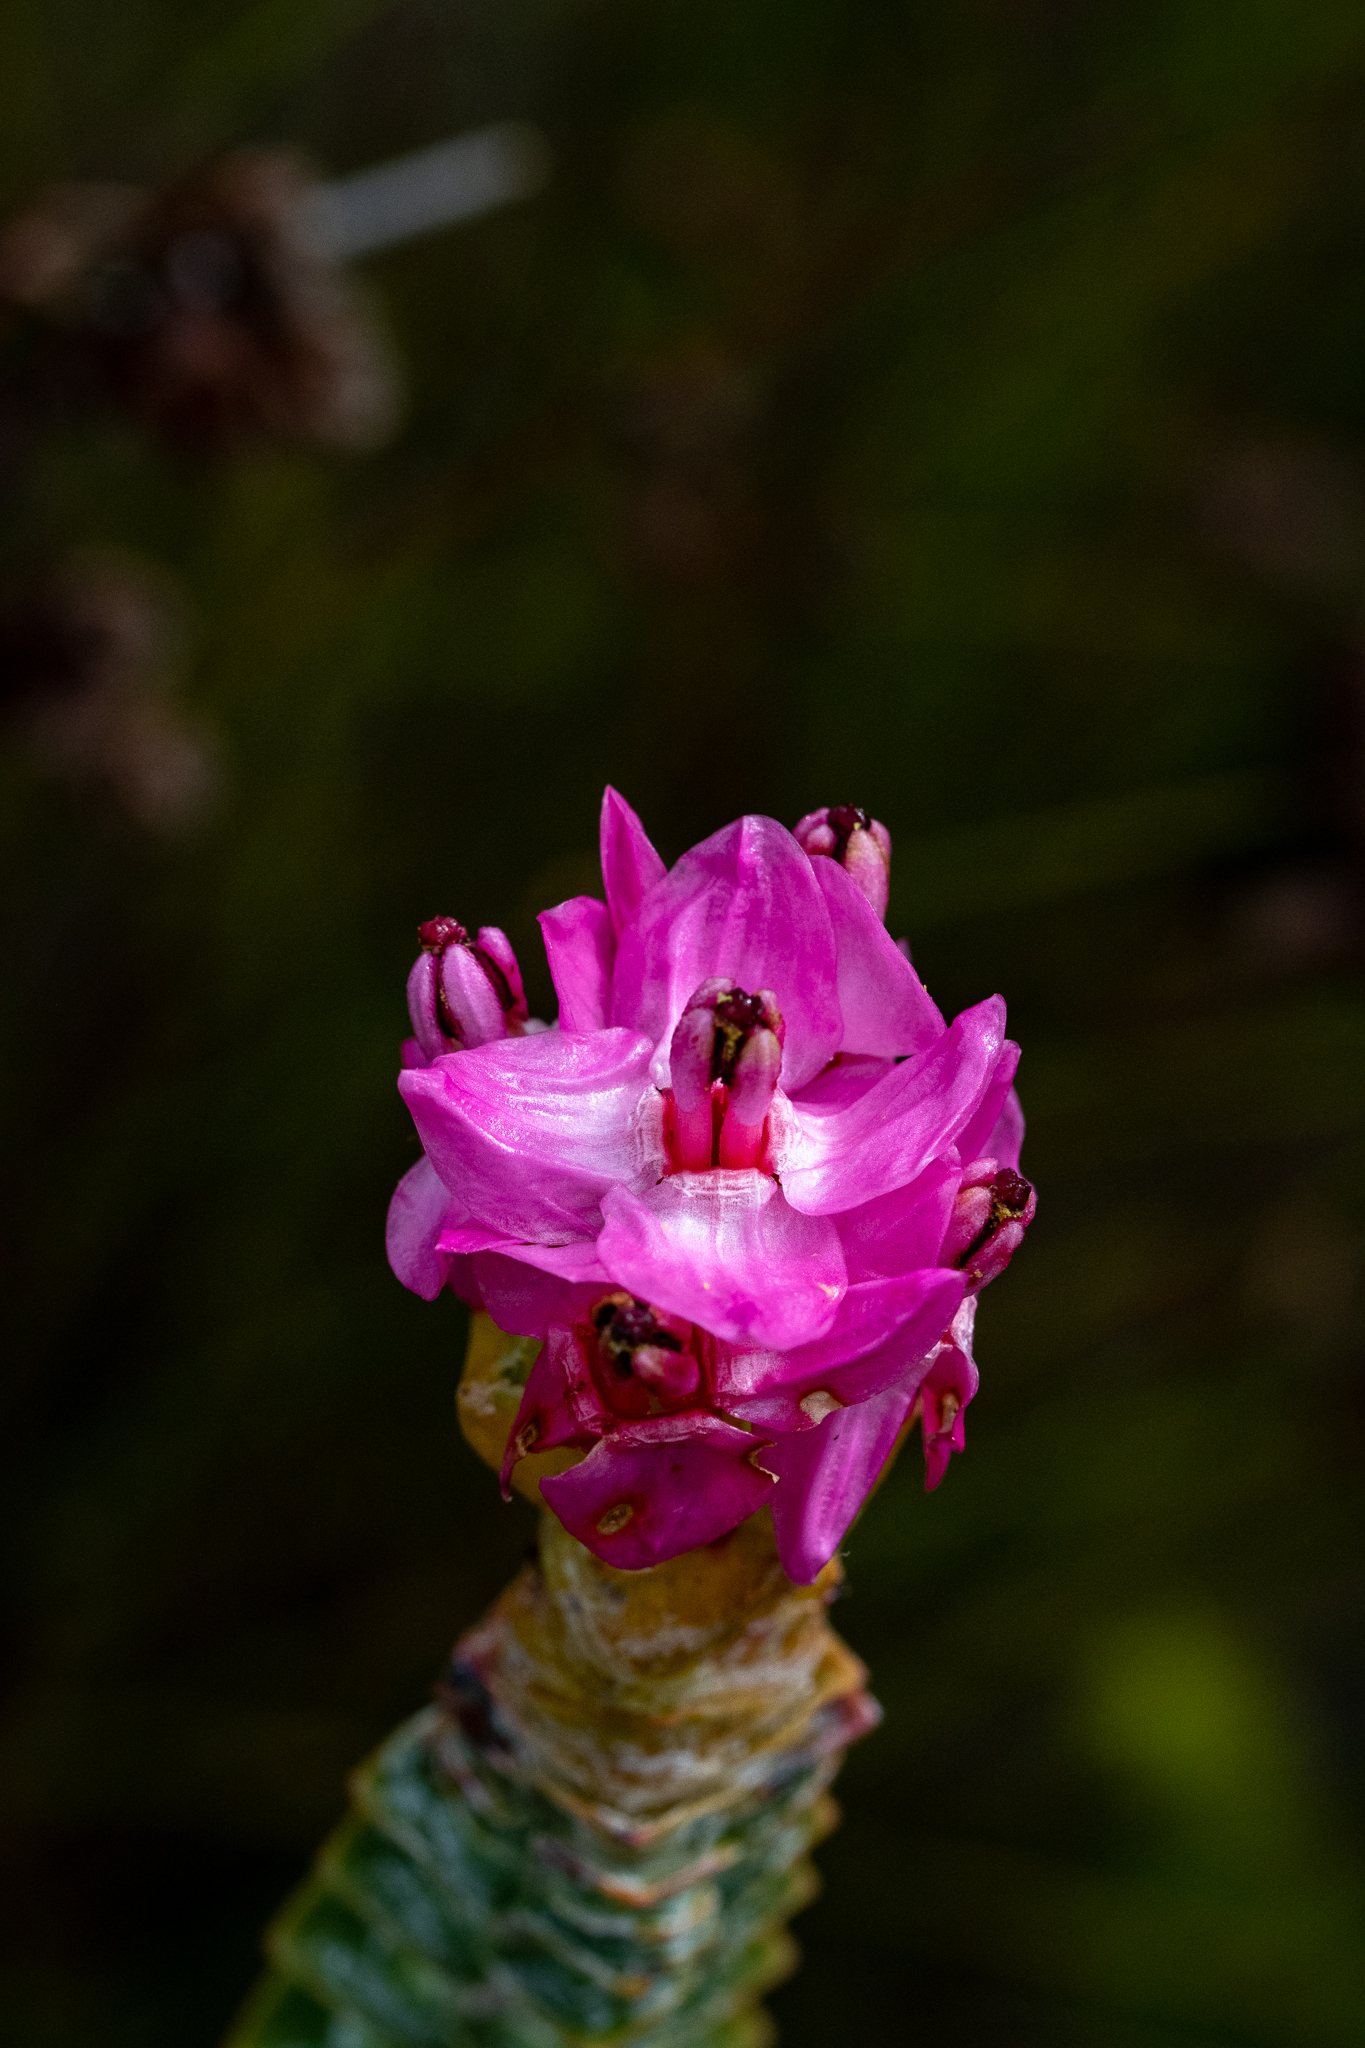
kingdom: Plantae
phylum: Tracheophyta
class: Magnoliopsida
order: Myrtales
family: Penaeaceae
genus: Saltera
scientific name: Saltera sarcocolla
